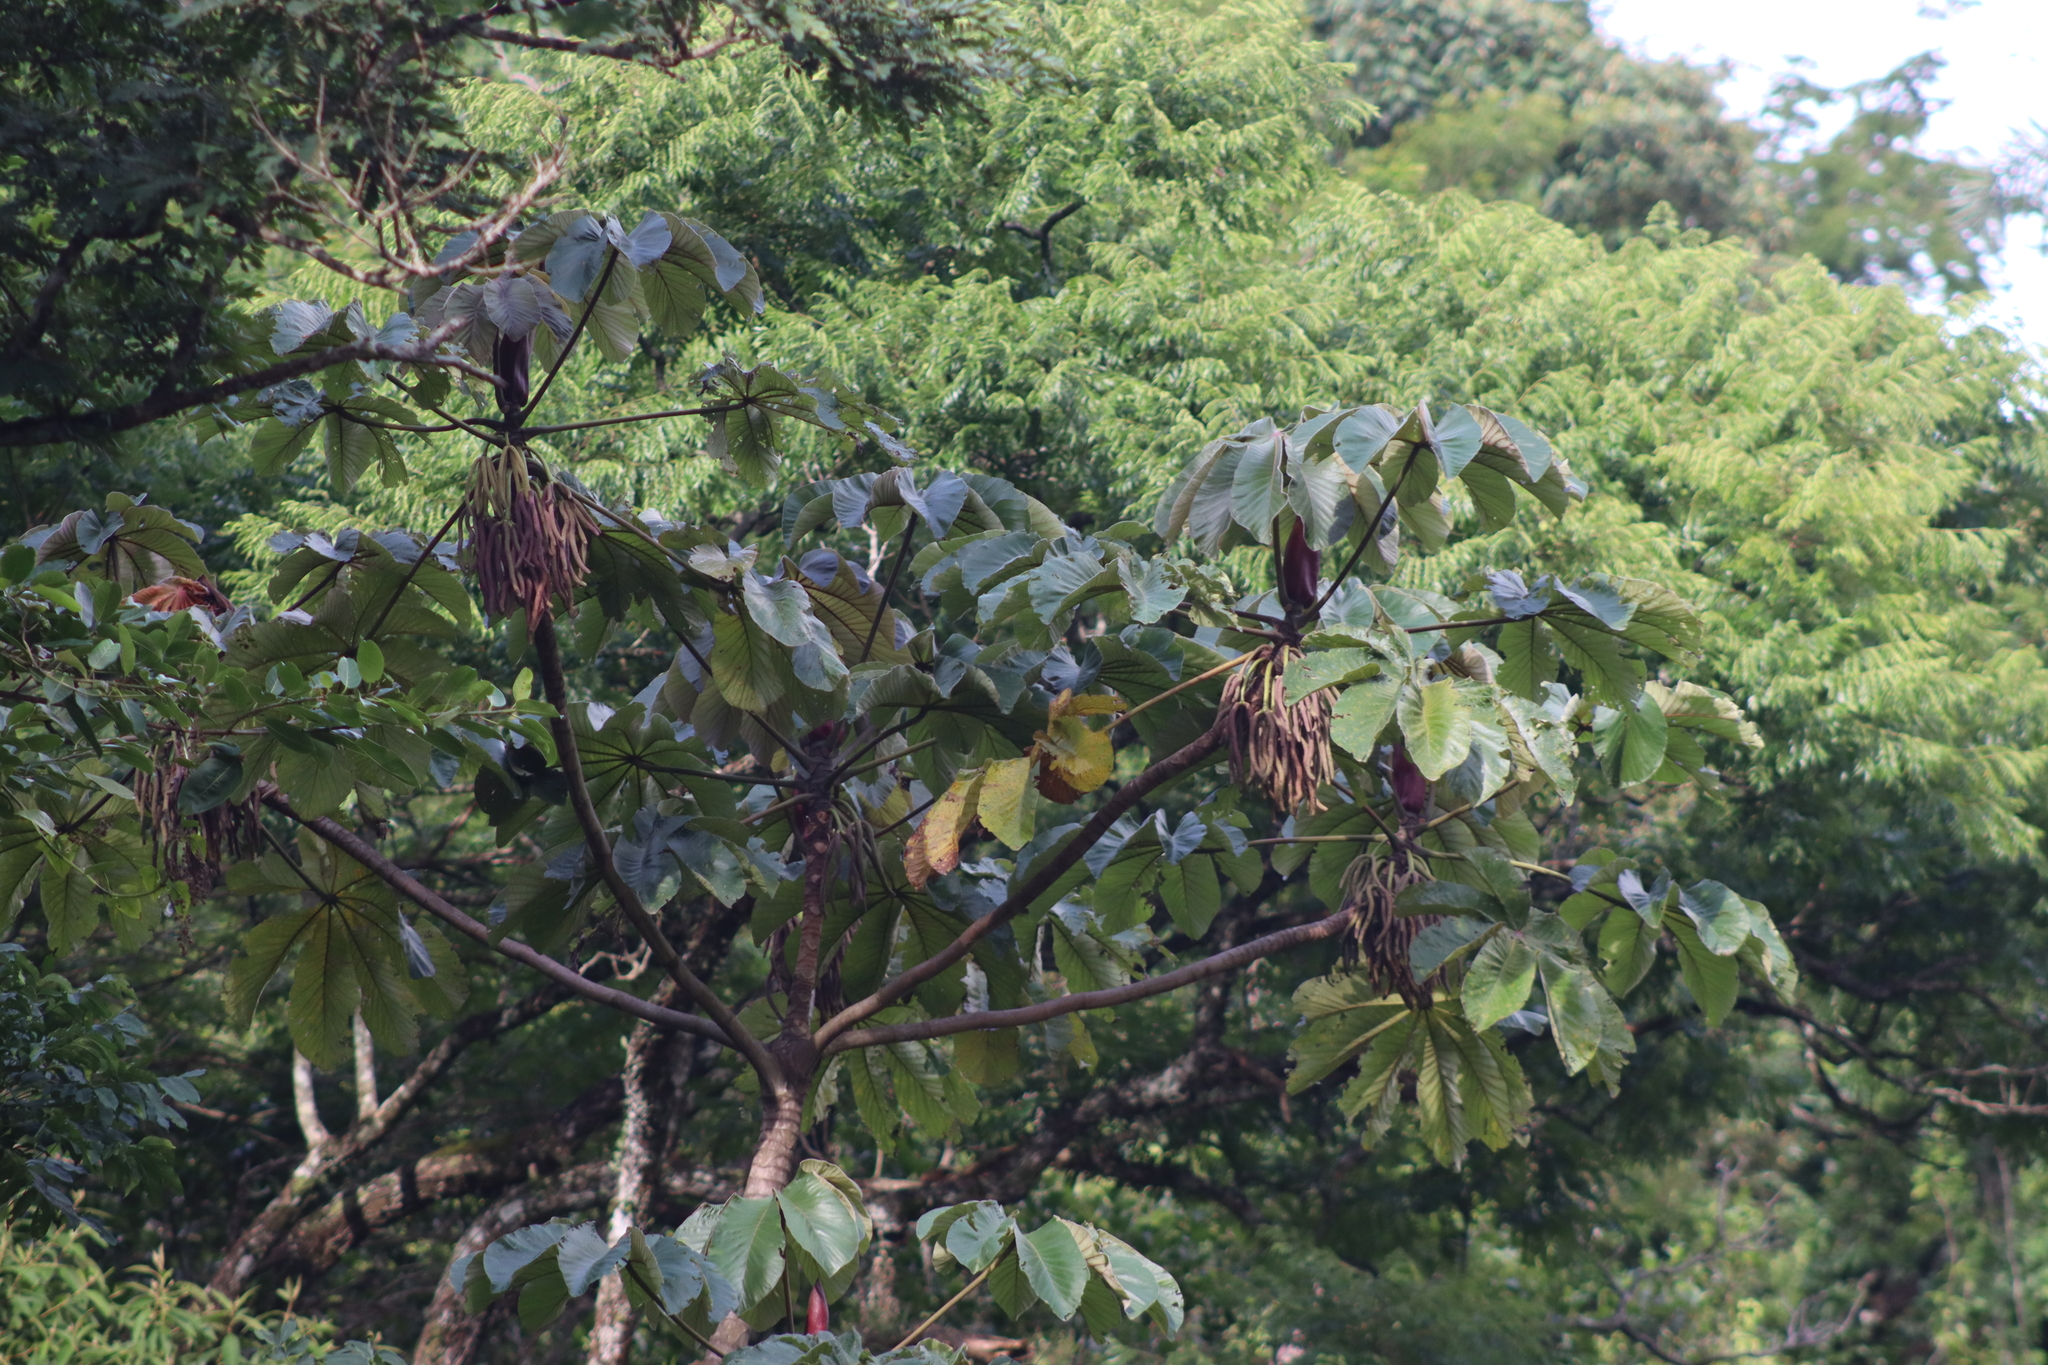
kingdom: Plantae
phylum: Tracheophyta
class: Magnoliopsida
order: Rosales
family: Urticaceae
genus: Cecropia
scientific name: Cecropia glaziovii
